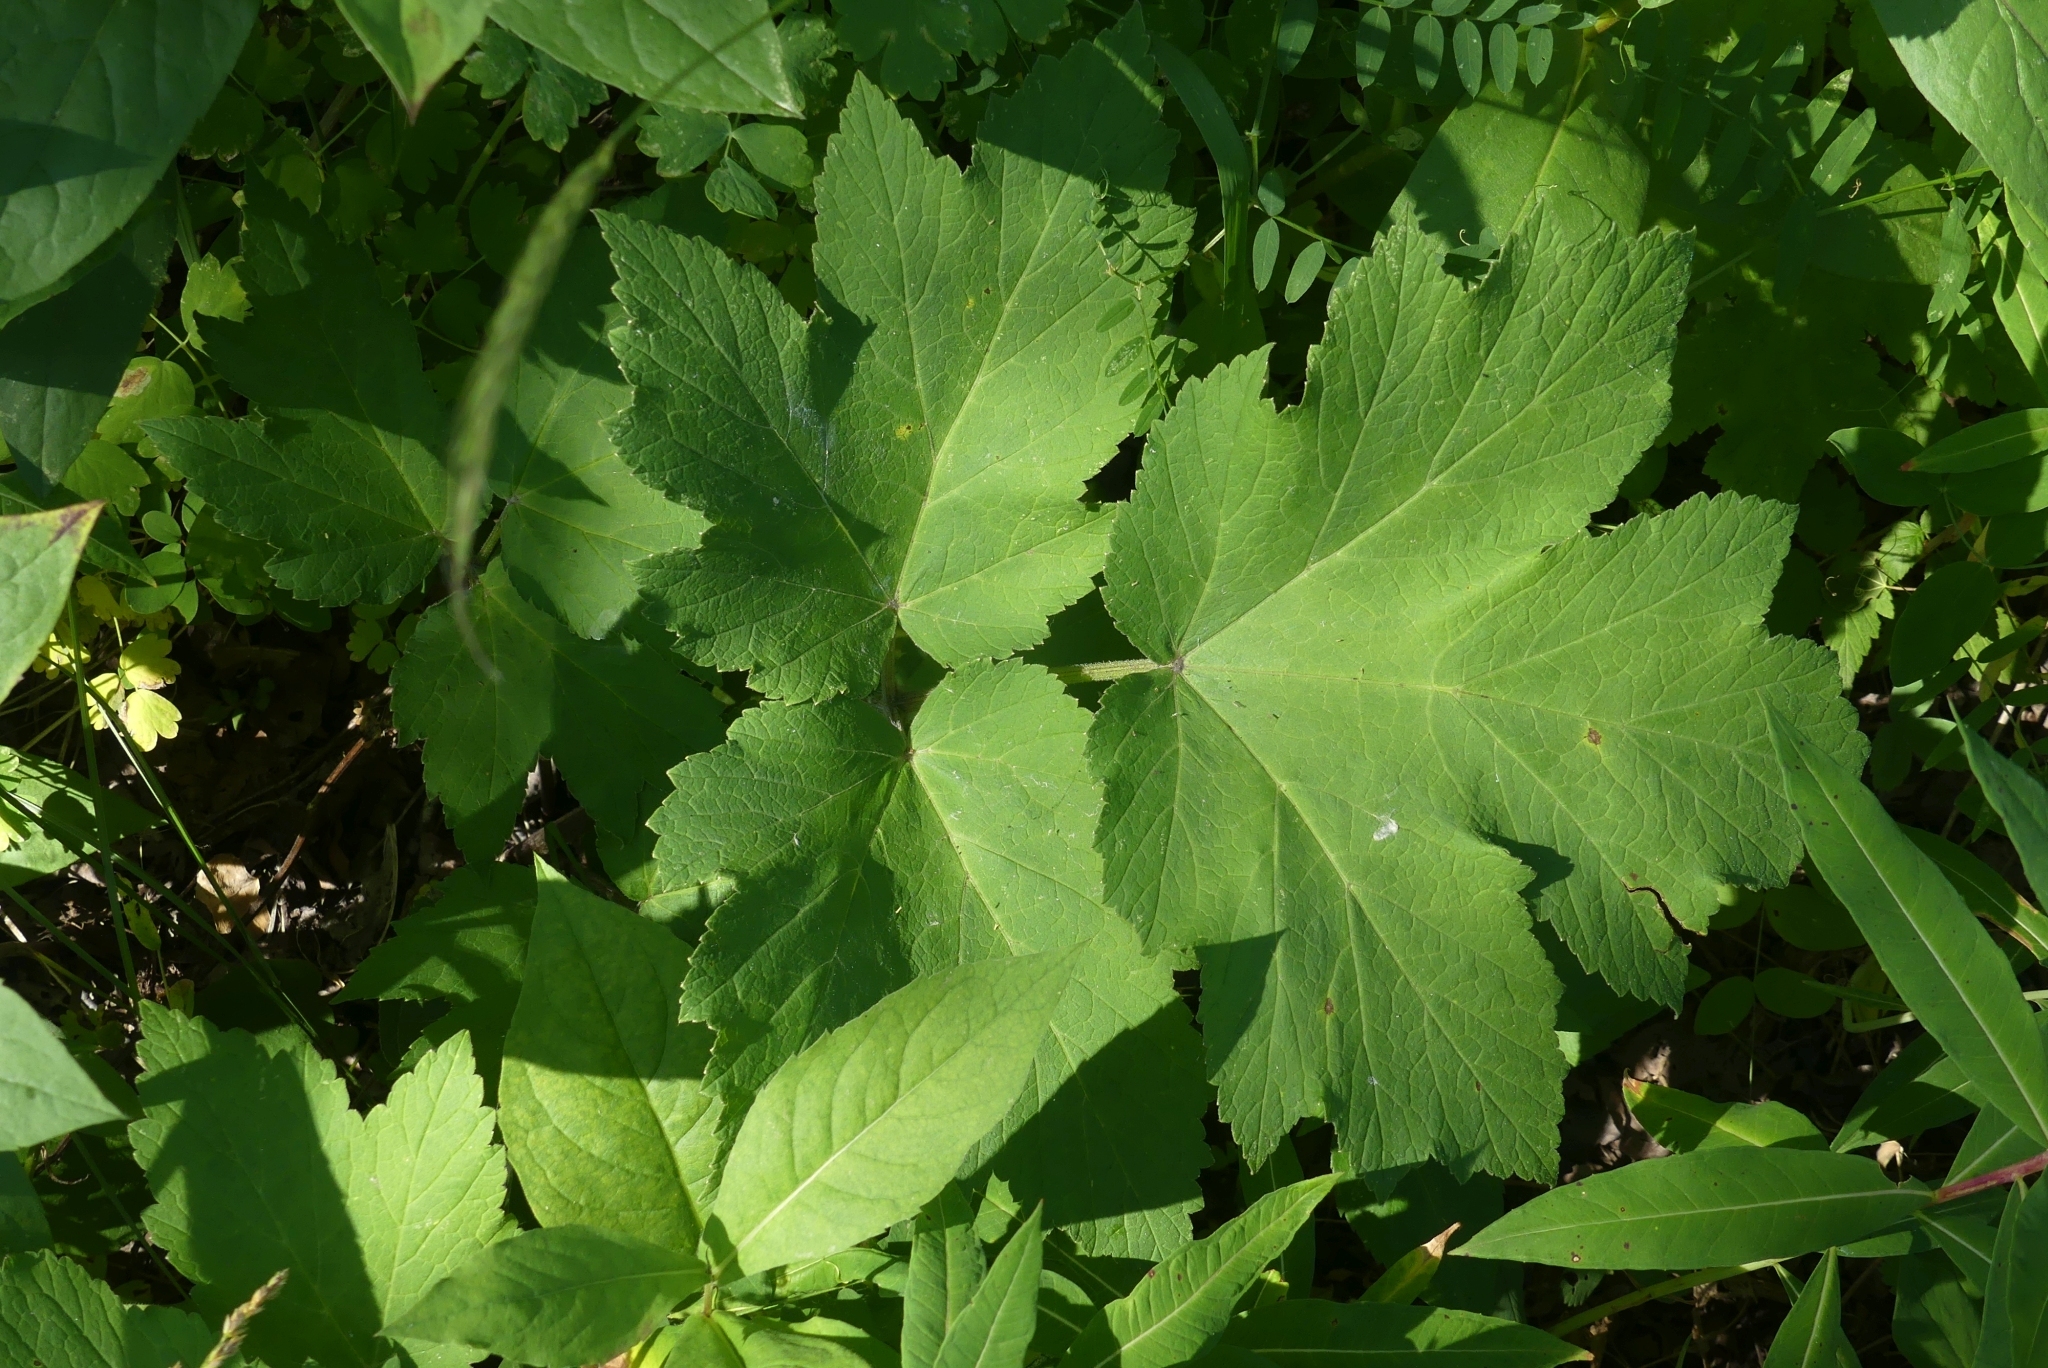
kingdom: Plantae
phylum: Tracheophyta
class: Magnoliopsida
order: Apiales
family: Apiaceae
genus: Heracleum
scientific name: Heracleum maximum
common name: American cow parsnip
